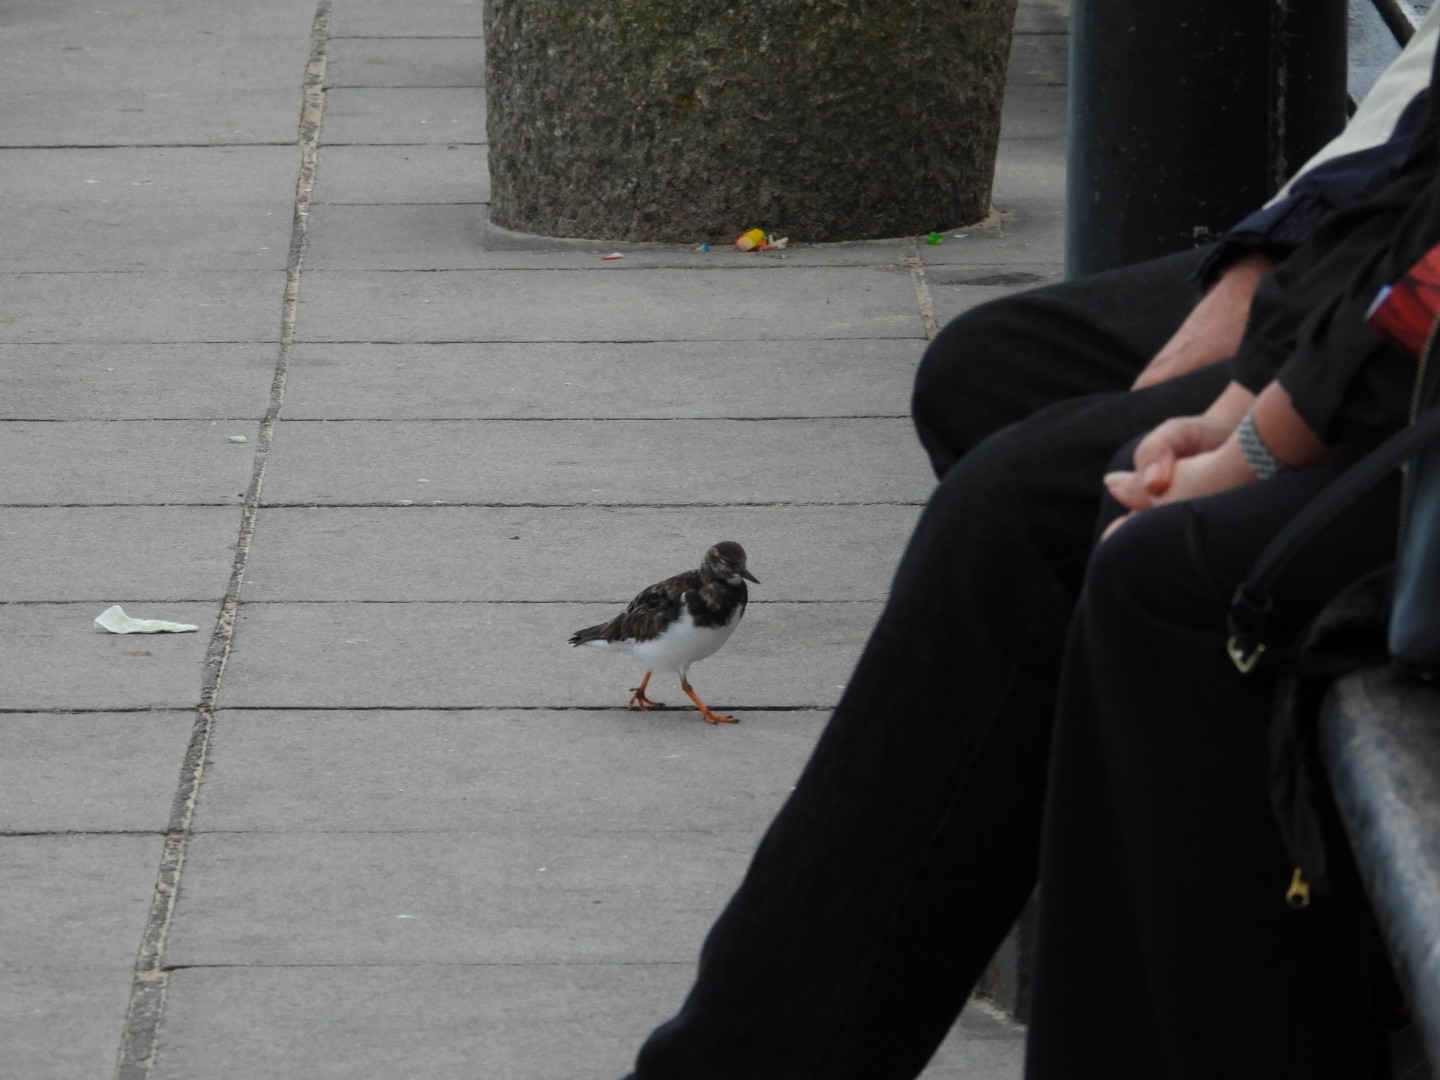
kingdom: Animalia
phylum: Chordata
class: Aves
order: Charadriiformes
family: Scolopacidae
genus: Arenaria
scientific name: Arenaria interpres
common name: Ruddy turnstone
